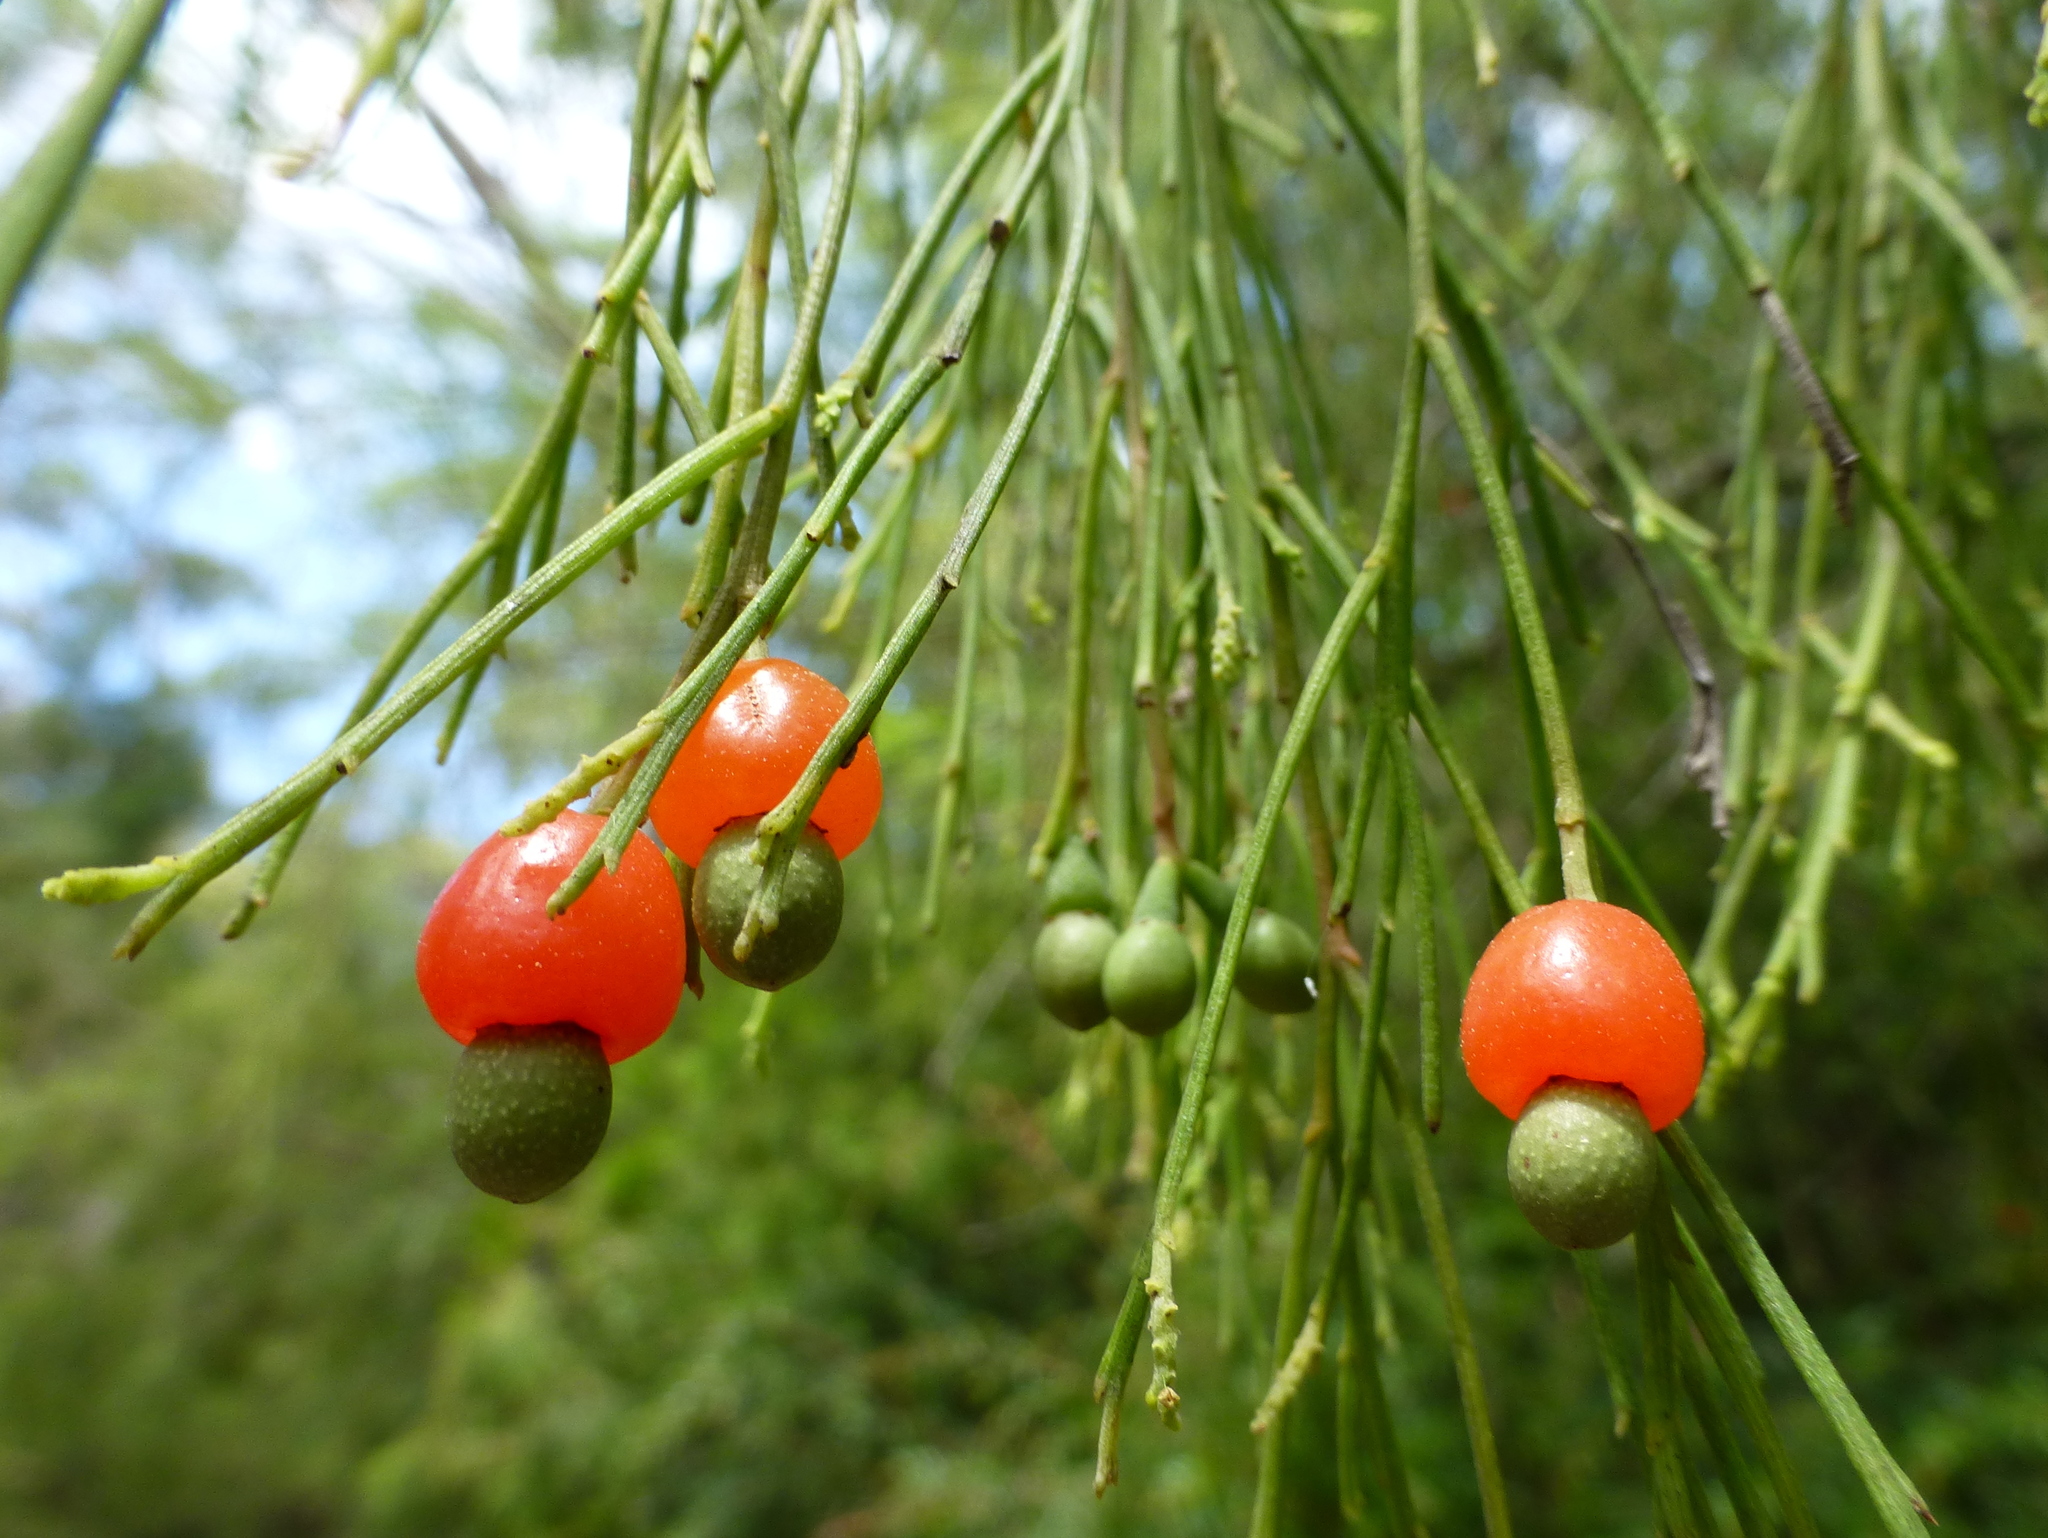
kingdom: Plantae
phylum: Tracheophyta
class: Magnoliopsida
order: Santalales
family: Santalaceae
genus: Exocarpos
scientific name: Exocarpos cupressiformis
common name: Cherry ballart
